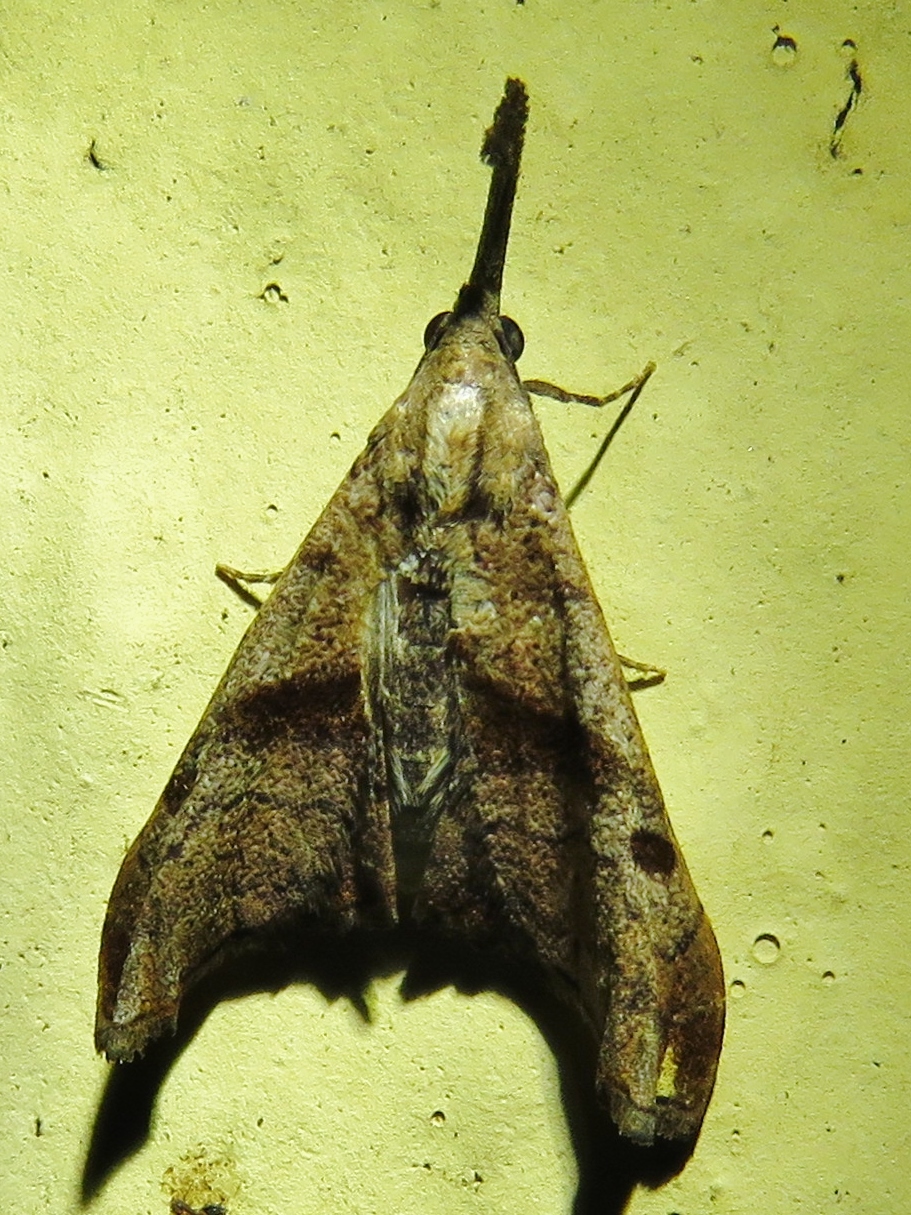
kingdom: Animalia
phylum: Arthropoda
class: Insecta
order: Lepidoptera
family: Erebidae
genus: Palthis
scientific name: Palthis angulalis
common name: Dark-spotted palthis moth
